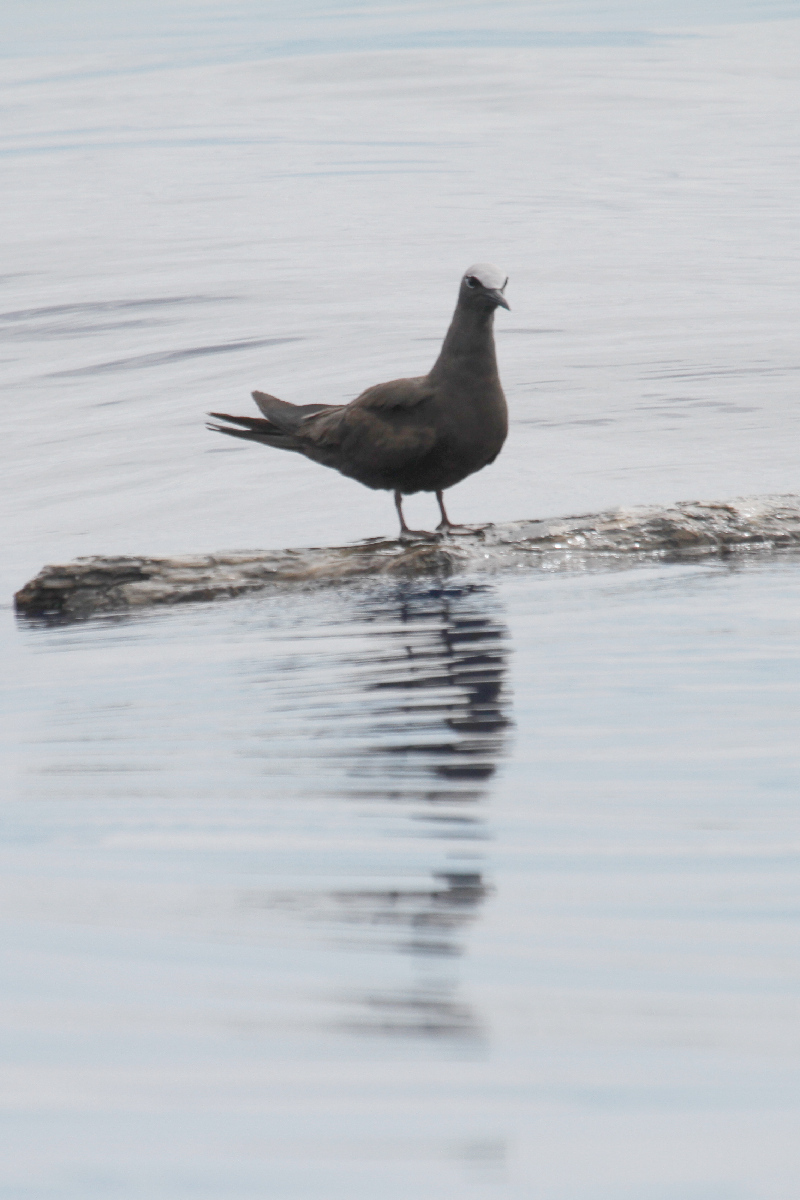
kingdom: Animalia
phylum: Chordata
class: Aves
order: Charadriiformes
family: Laridae
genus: Anous
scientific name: Anous stolidus
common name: Brown noddy
